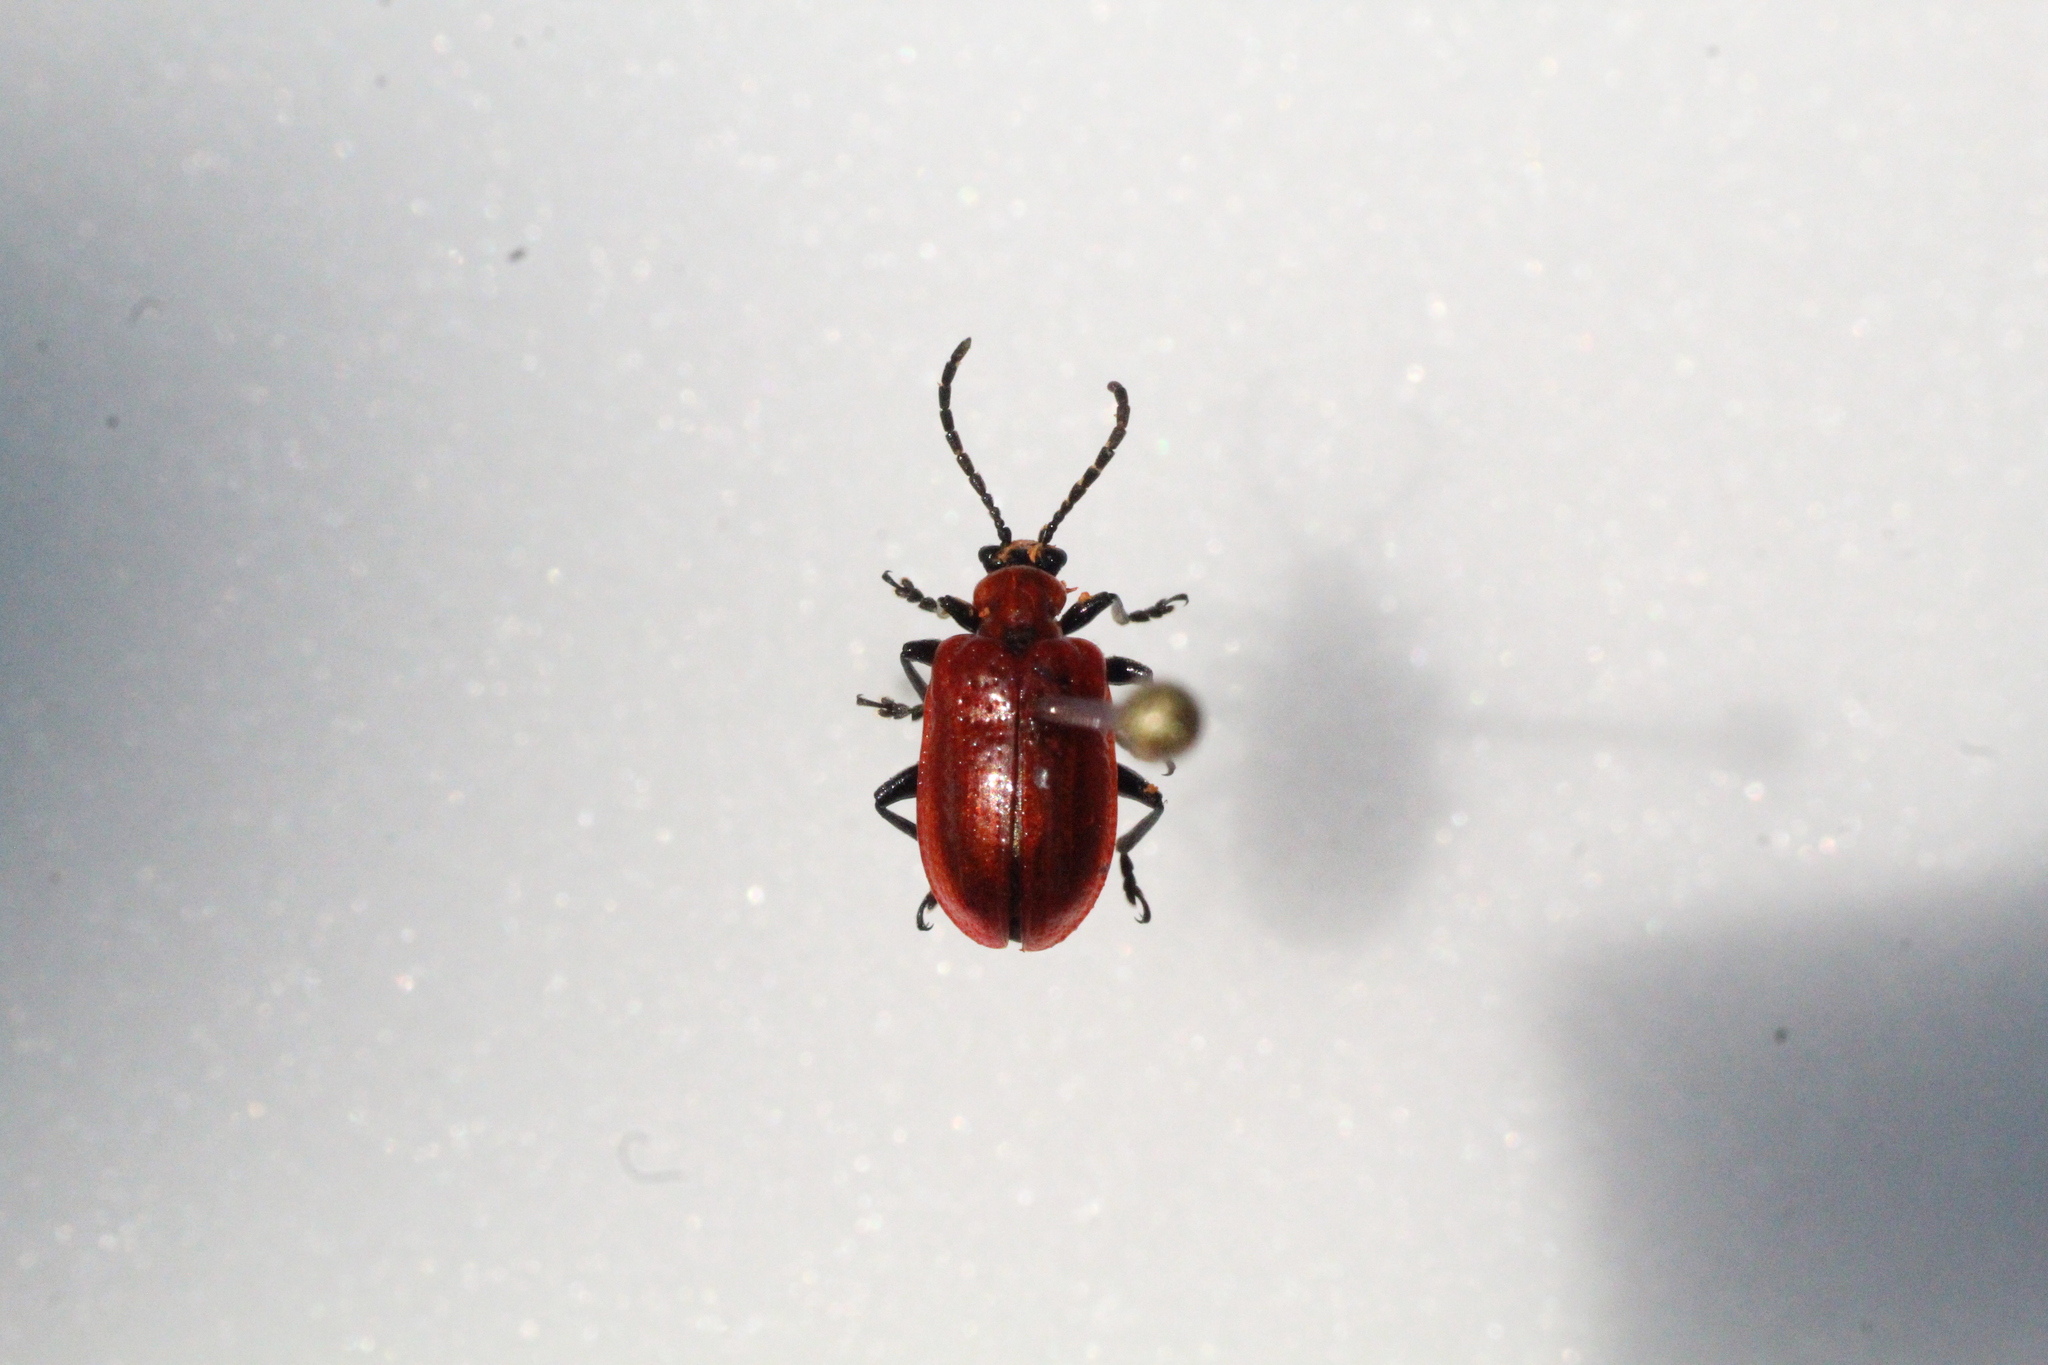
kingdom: Animalia
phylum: Arthropoda
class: Insecta
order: Coleoptera
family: Chrysomelidae
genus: Lilioceris
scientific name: Lilioceris lilii
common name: Lily beetle
